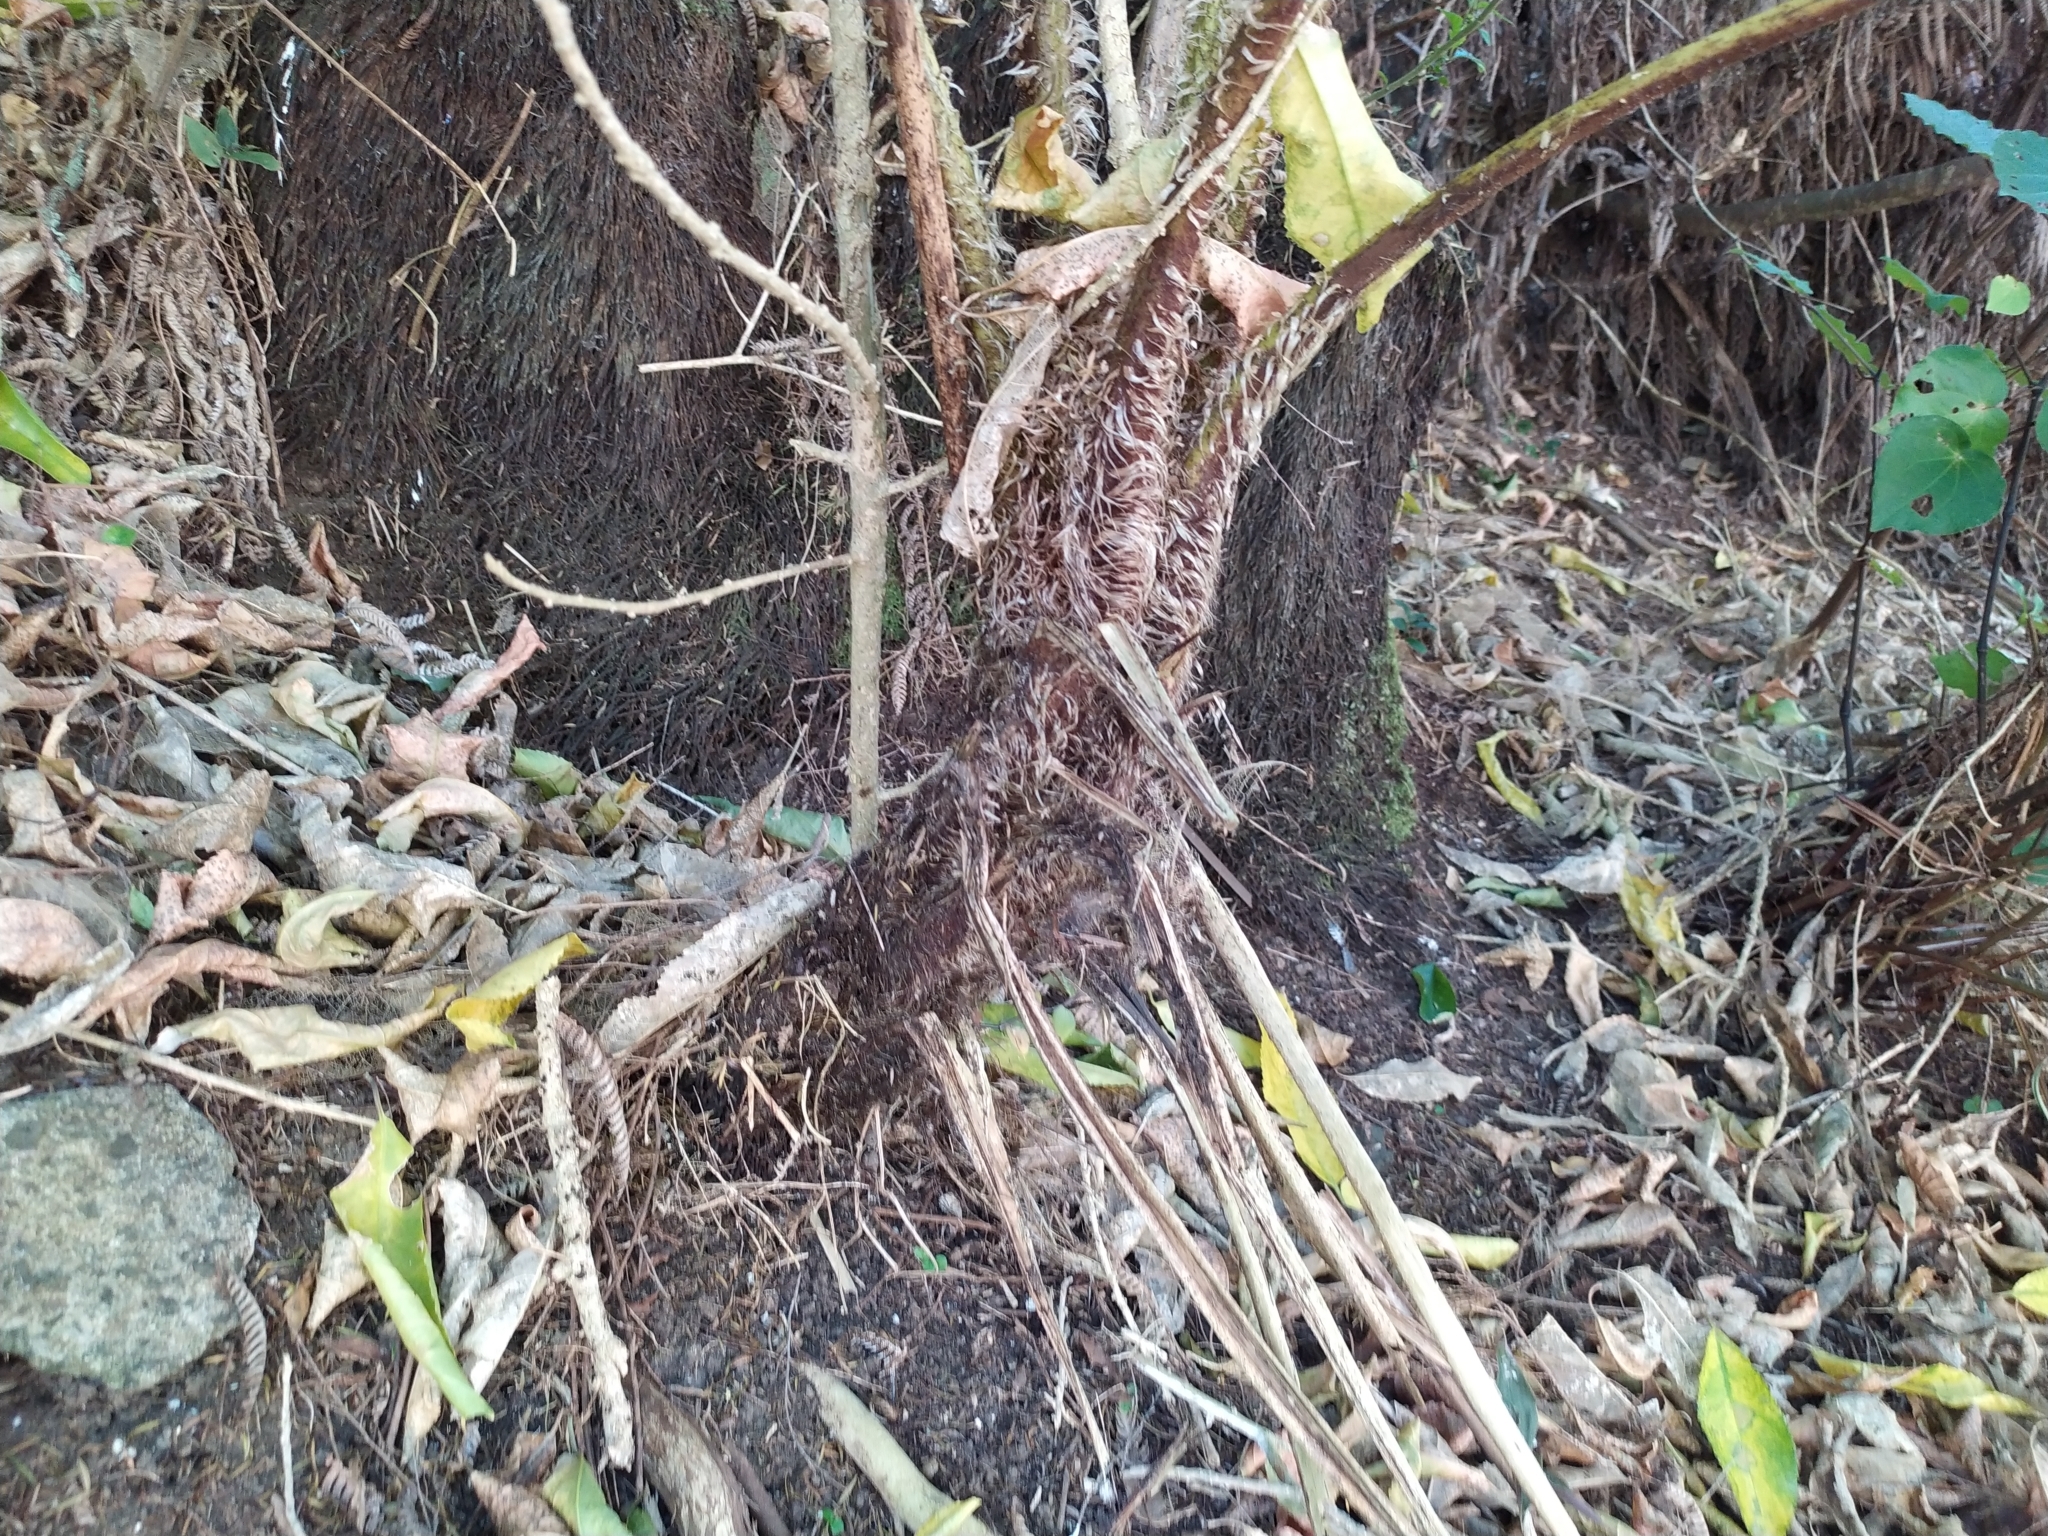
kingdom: Plantae
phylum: Tracheophyta
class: Polypodiopsida
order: Cyatheales
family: Cyatheaceae
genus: Sphaeropteris
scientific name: Sphaeropteris cooperi
